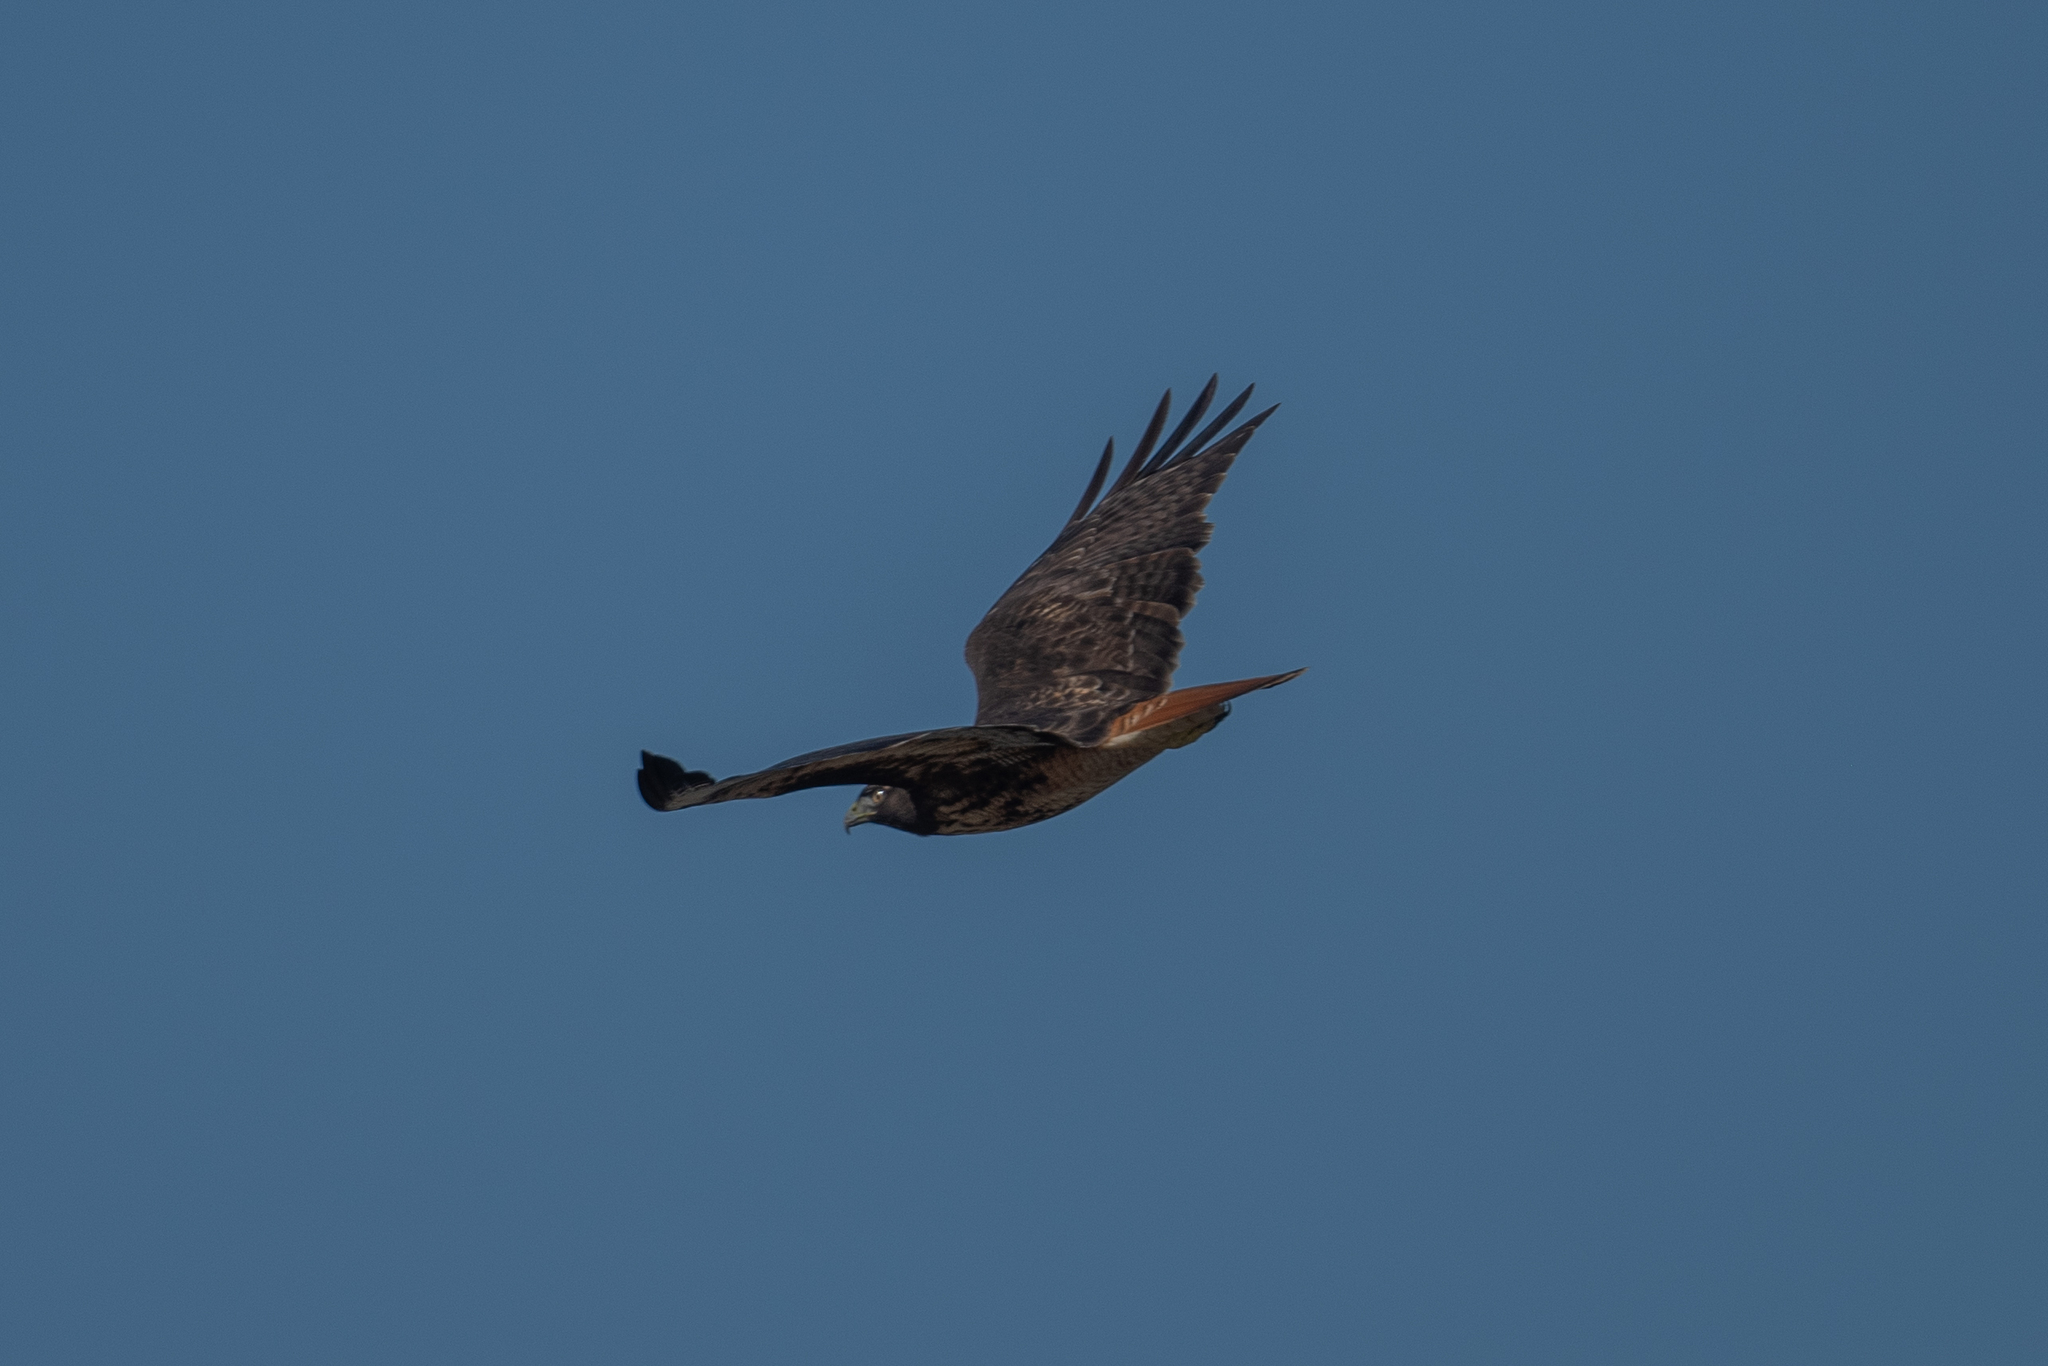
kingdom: Animalia
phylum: Chordata
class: Aves
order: Accipitriformes
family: Accipitridae
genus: Buteo
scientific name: Buteo jamaicensis
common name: Red-tailed hawk
